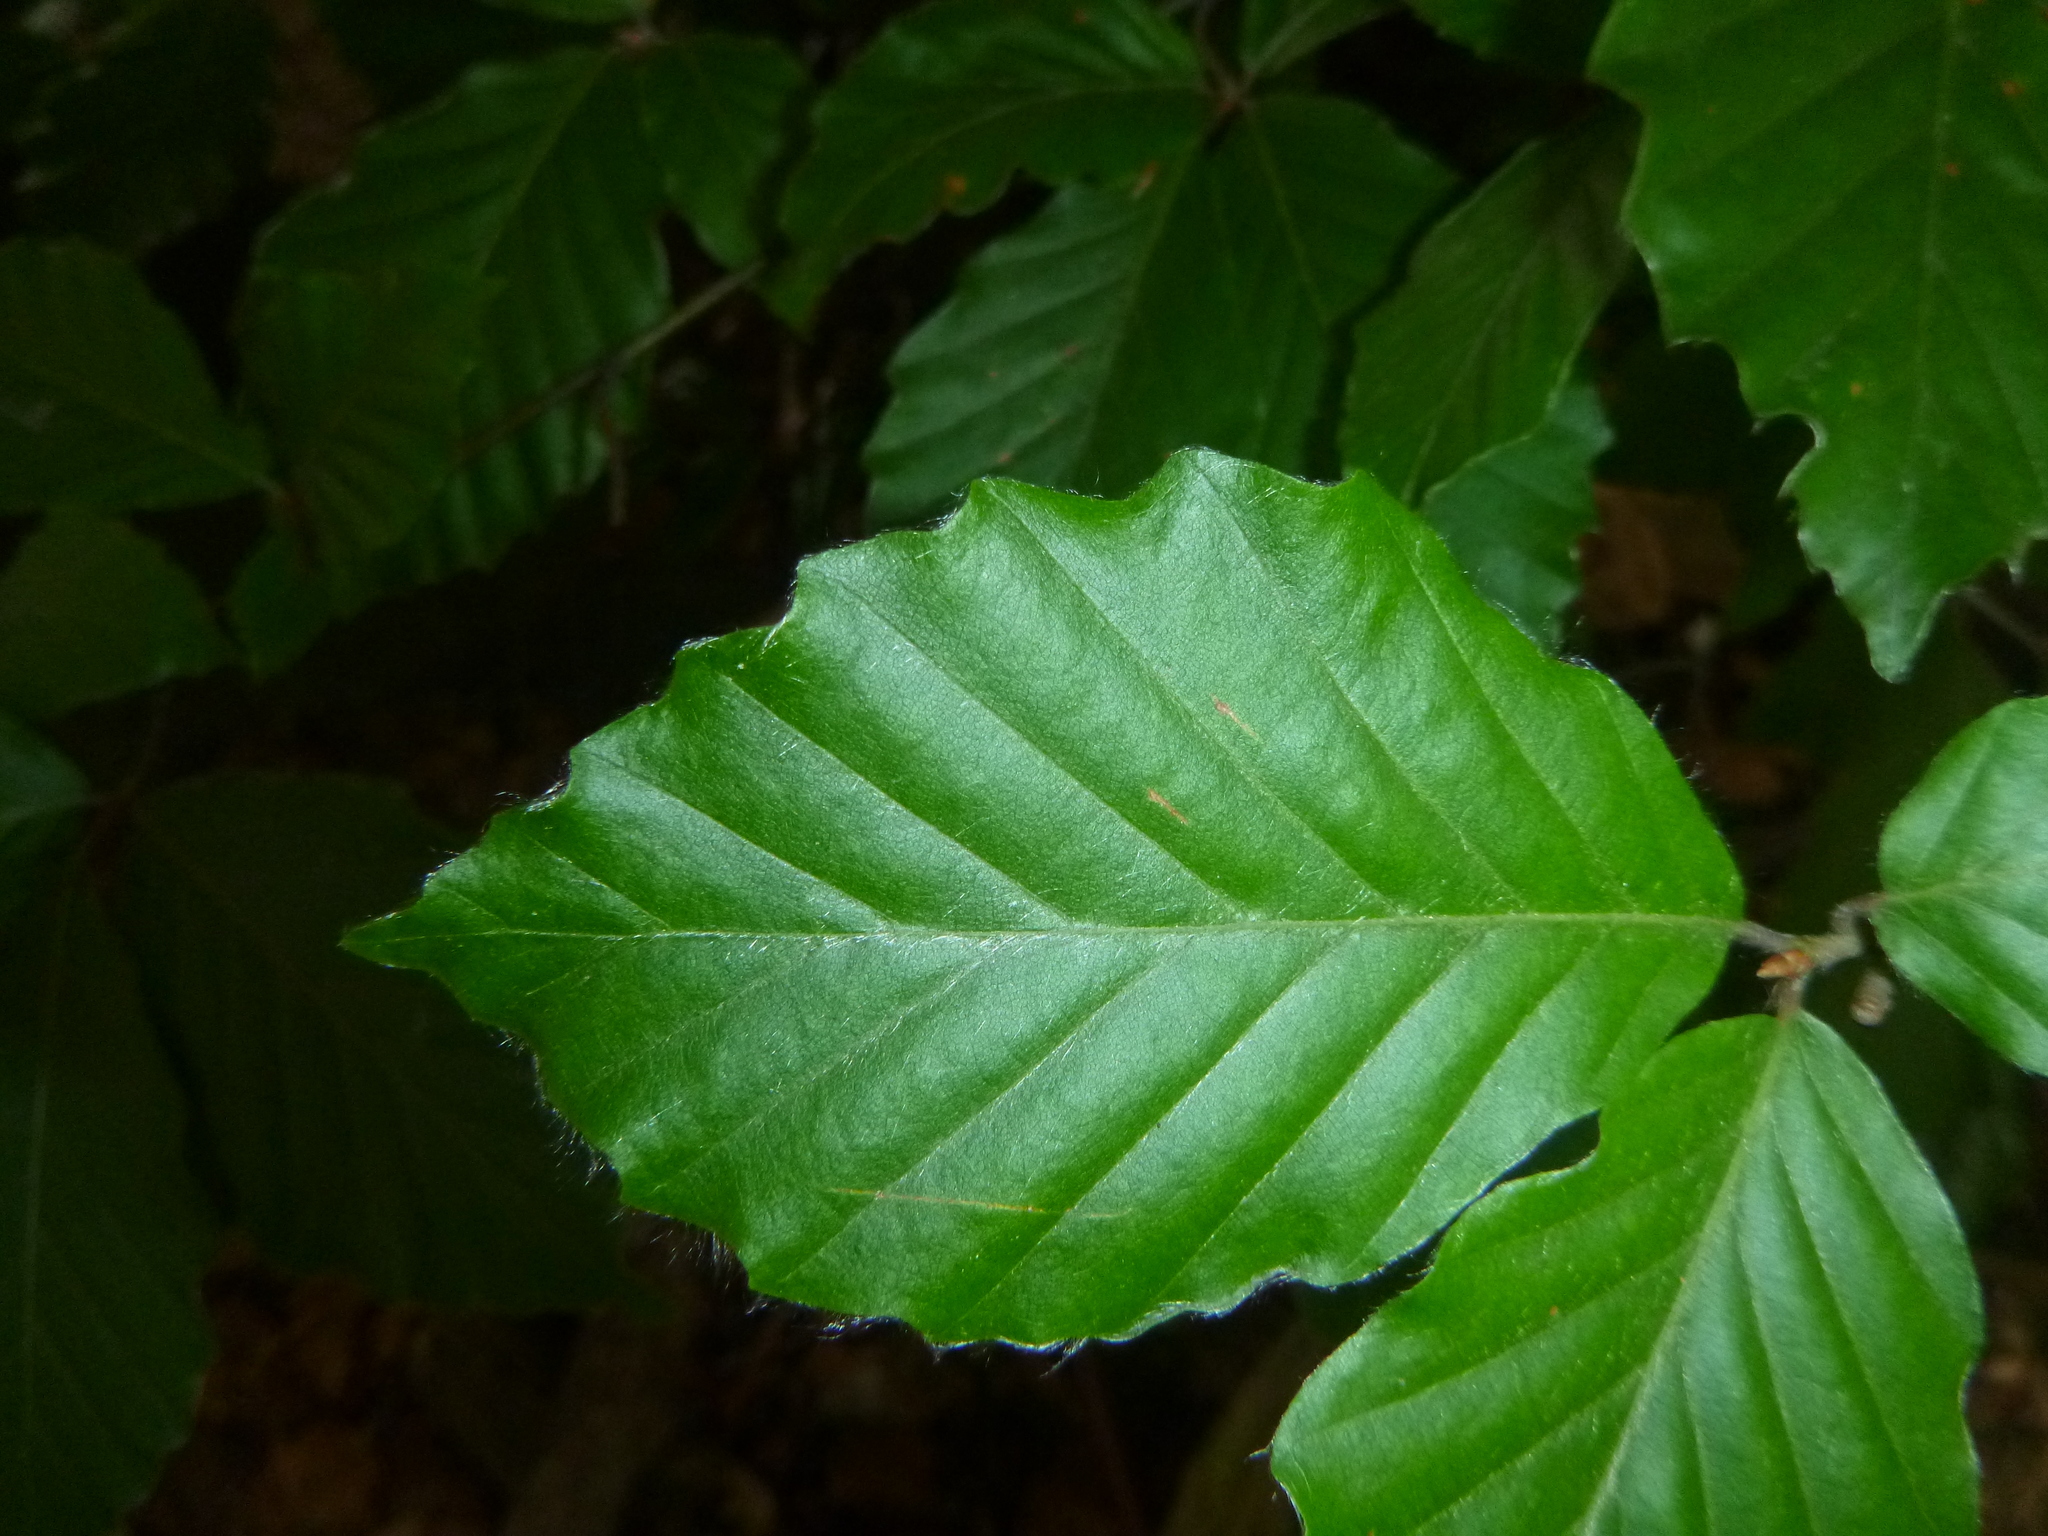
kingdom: Plantae
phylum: Tracheophyta
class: Magnoliopsida
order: Fagales
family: Fagaceae
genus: Fagus
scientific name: Fagus sylvatica
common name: Beech
